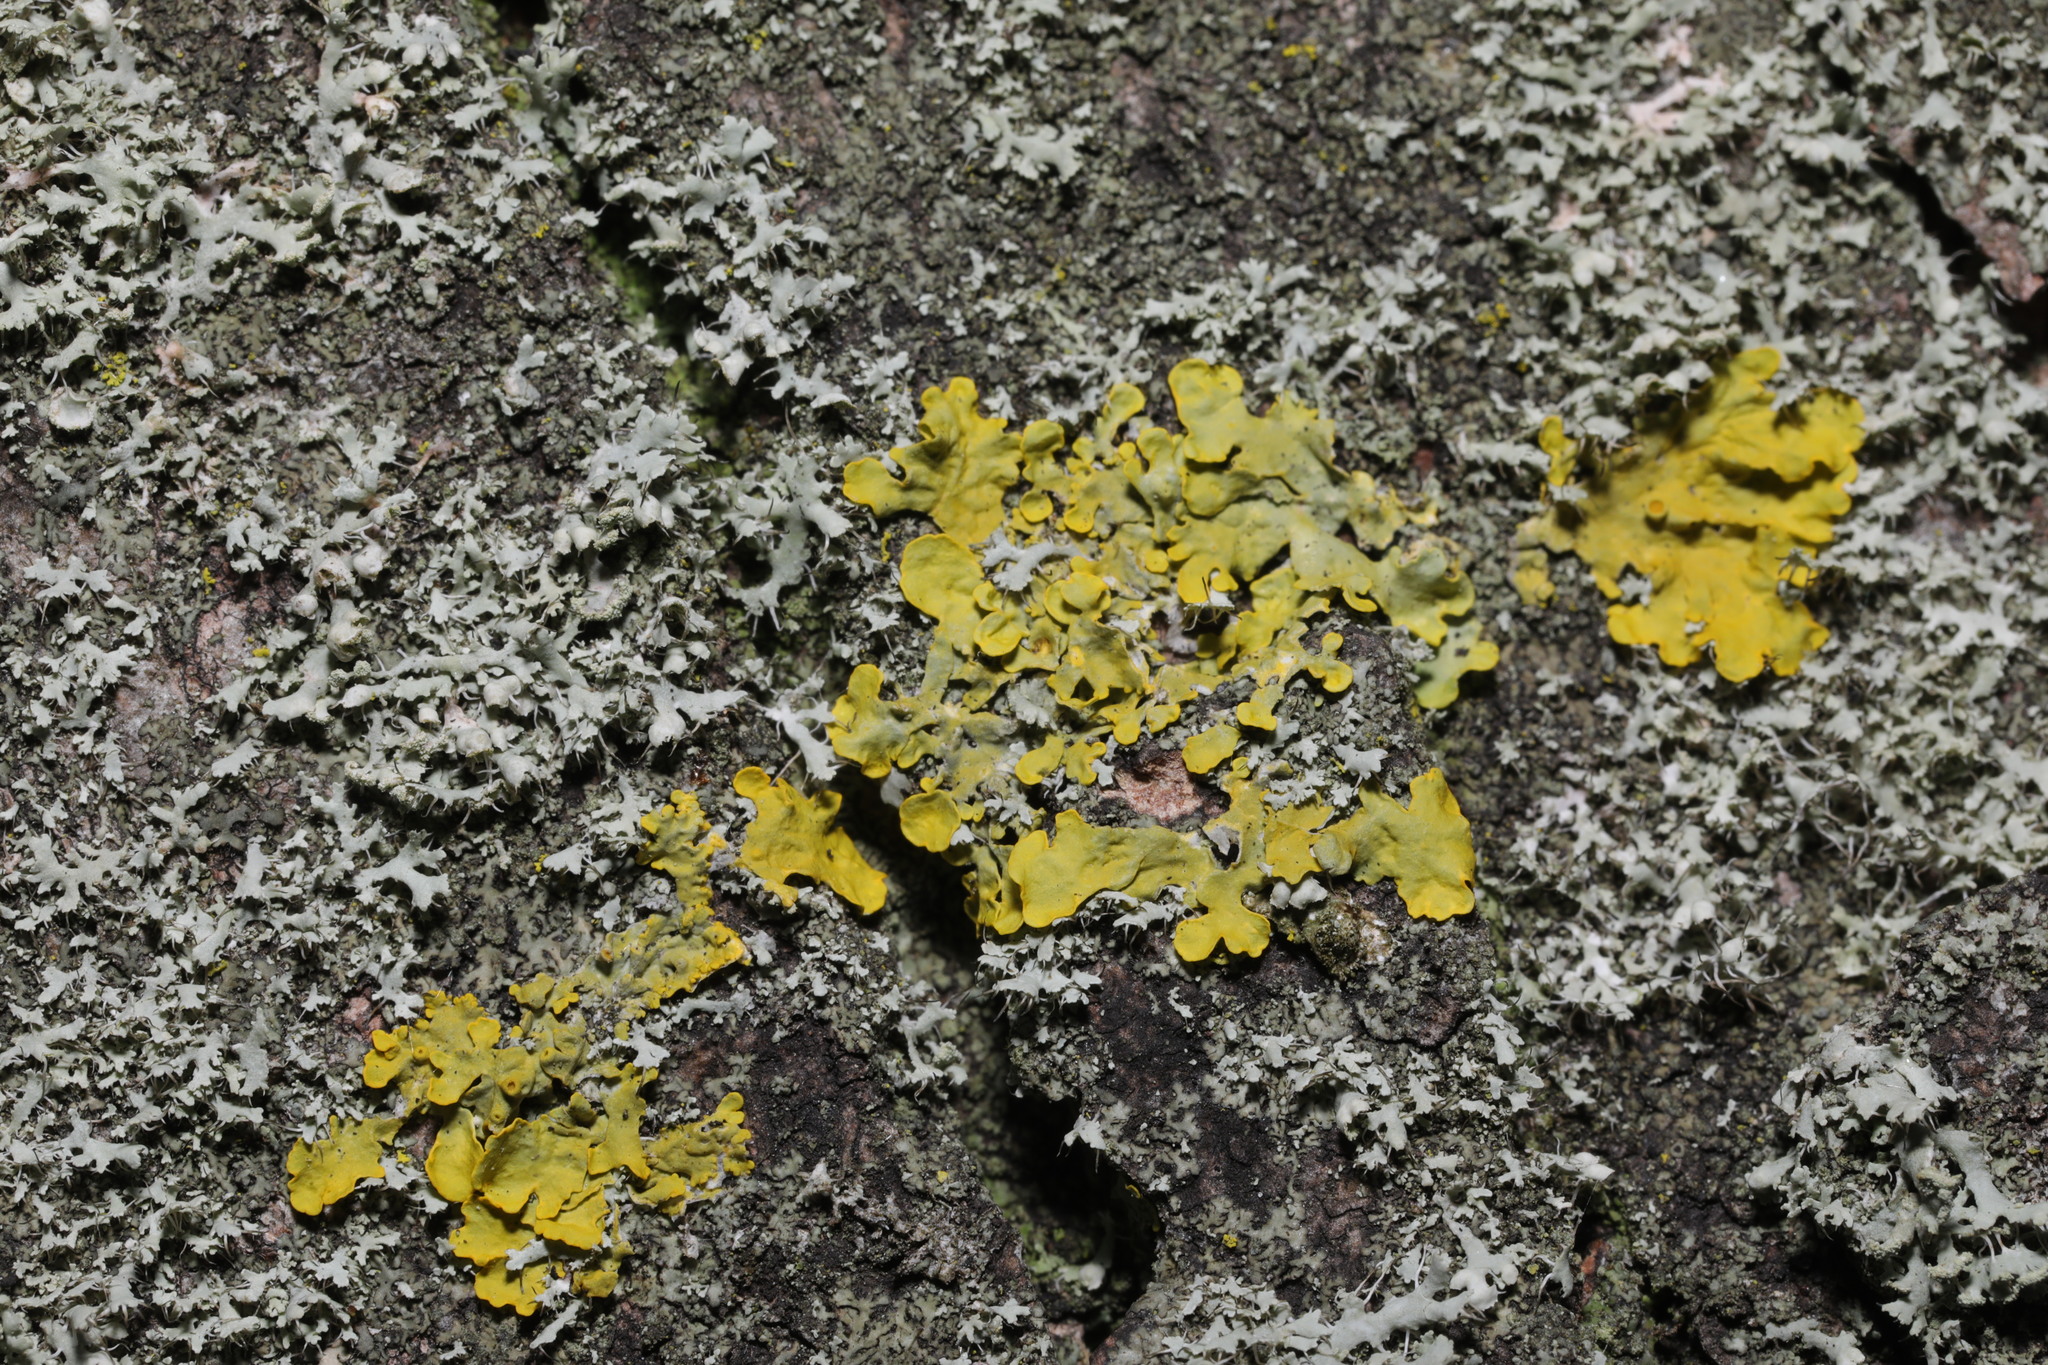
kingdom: Fungi
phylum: Ascomycota
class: Lecanoromycetes
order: Teloschistales
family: Teloschistaceae
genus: Xanthoria
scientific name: Xanthoria parietina
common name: Common orange lichen
